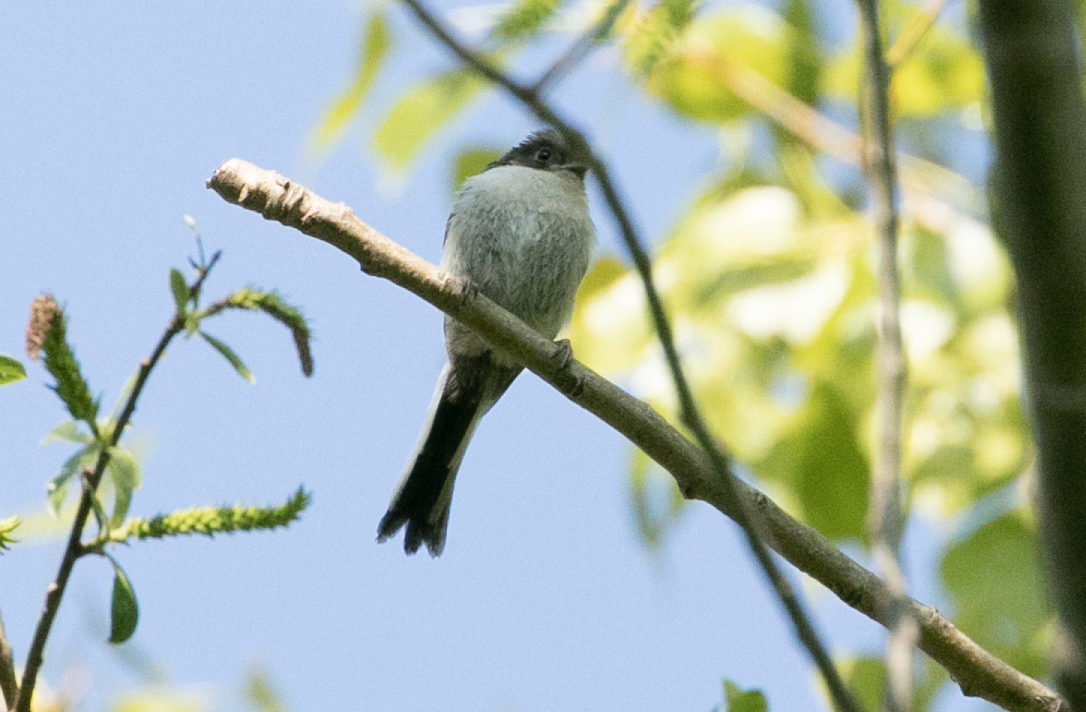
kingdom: Animalia
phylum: Chordata
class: Aves
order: Passeriformes
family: Aegithalidae
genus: Aegithalos
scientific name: Aegithalos caudatus
